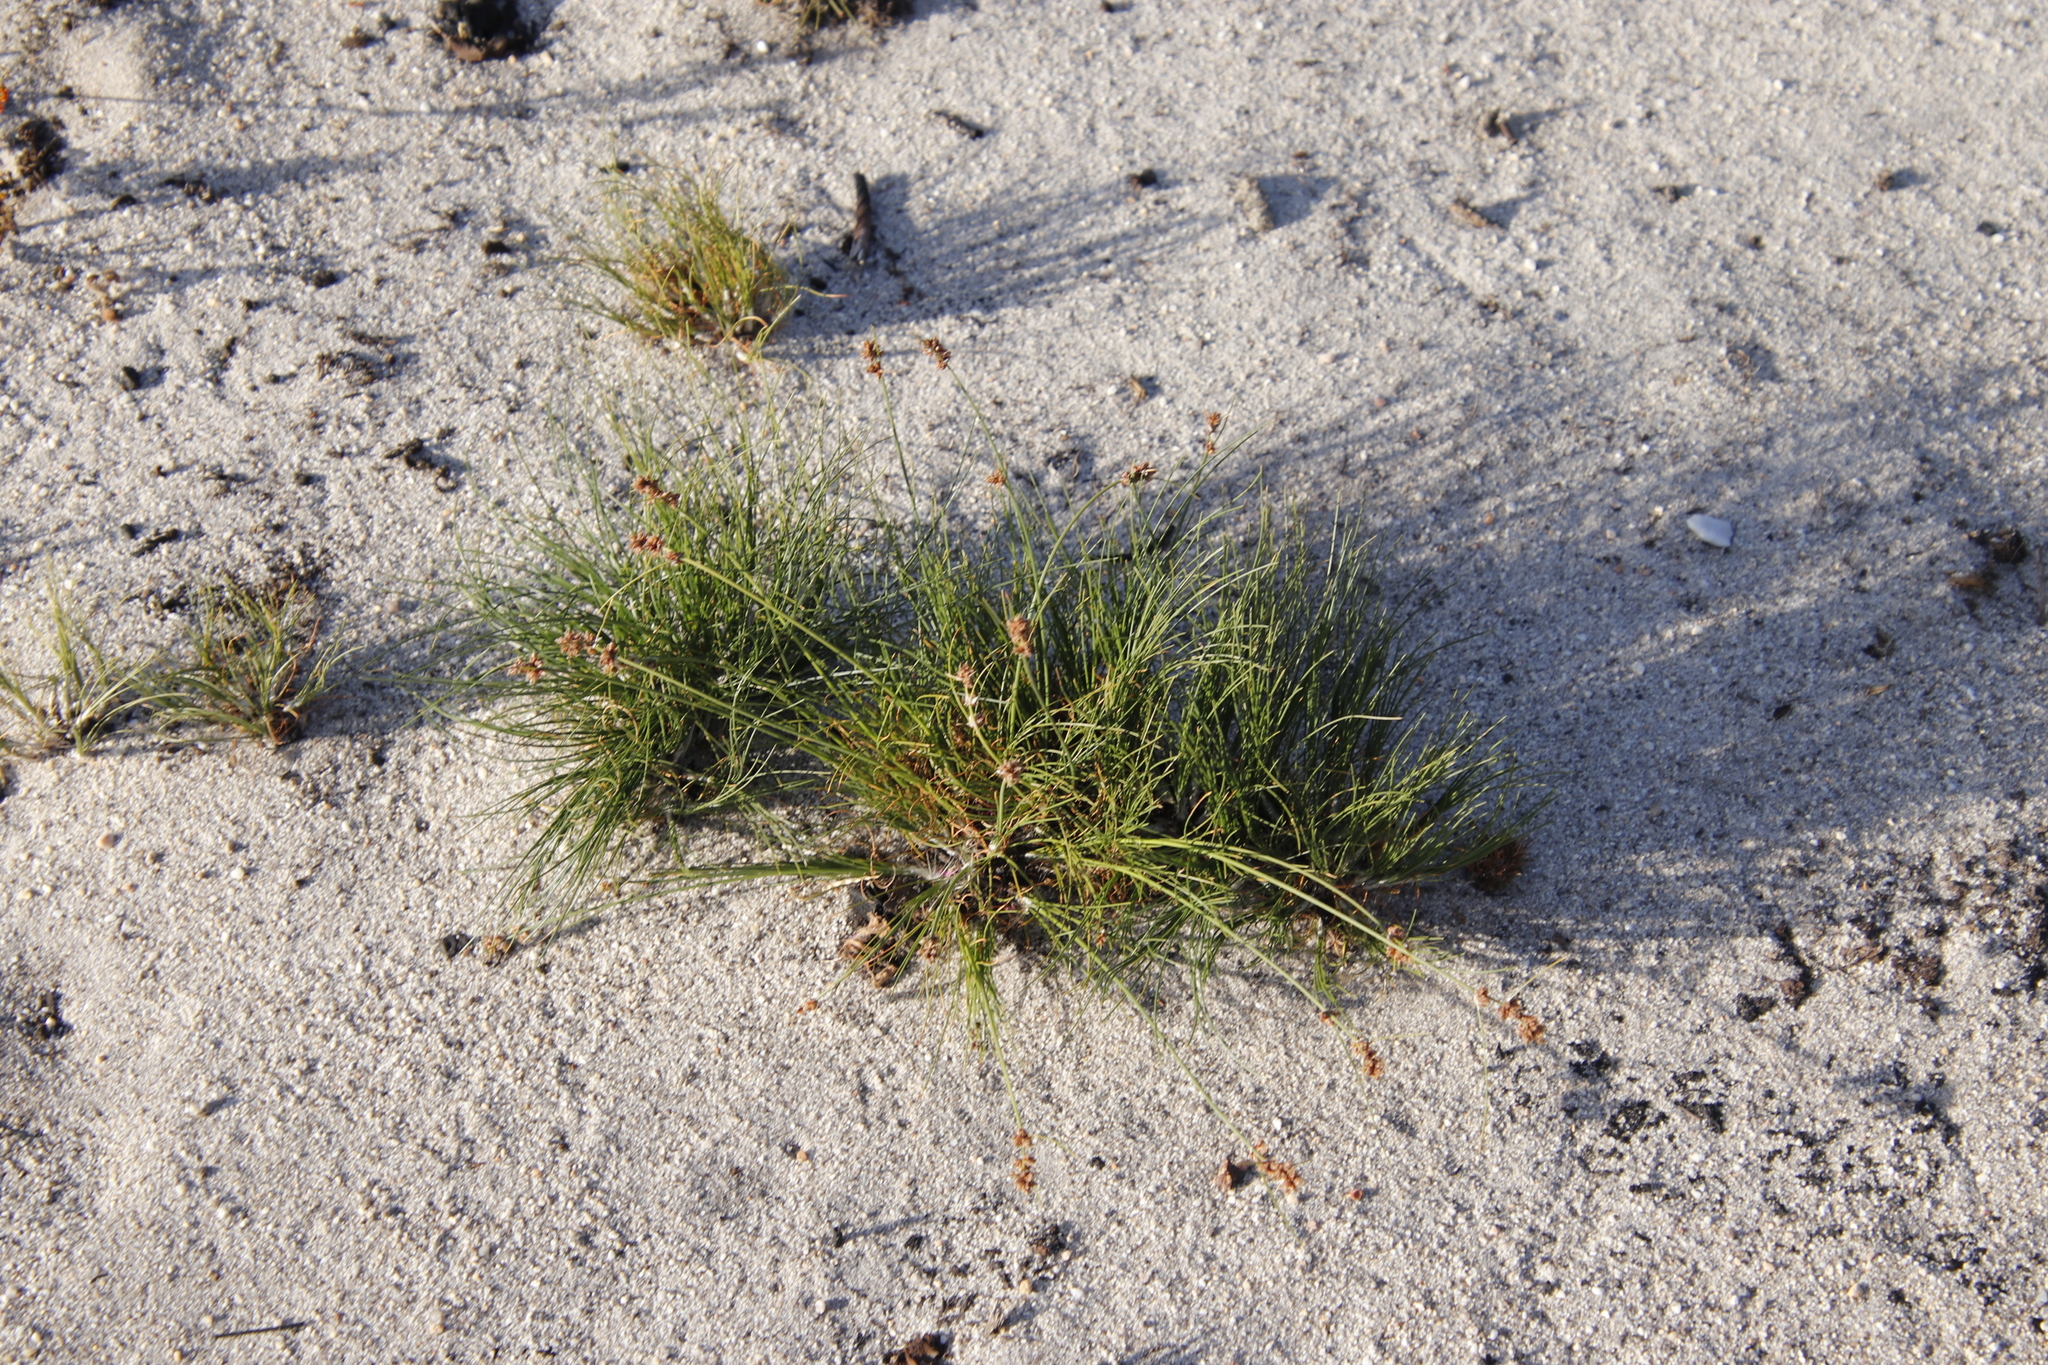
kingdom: Plantae
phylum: Tracheophyta
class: Liliopsida
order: Poales
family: Cyperaceae
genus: Ficinia
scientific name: Ficinia bulbosa
